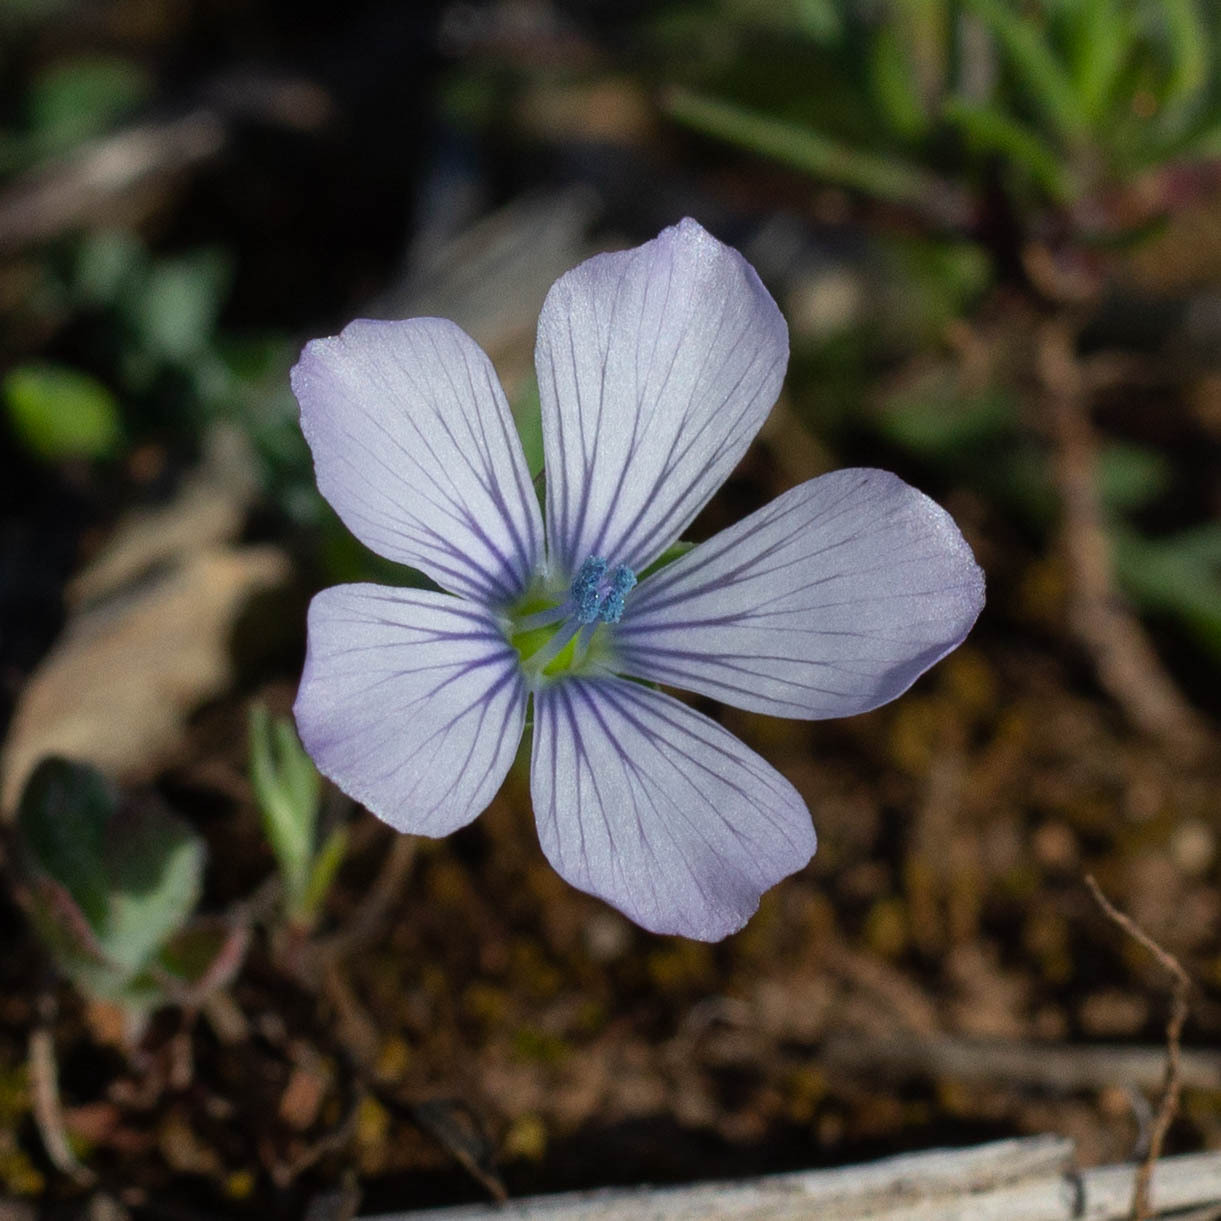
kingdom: Plantae
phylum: Tracheophyta
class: Magnoliopsida
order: Malpighiales
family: Linaceae
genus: Linum
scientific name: Linum bienne
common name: Pale flax
